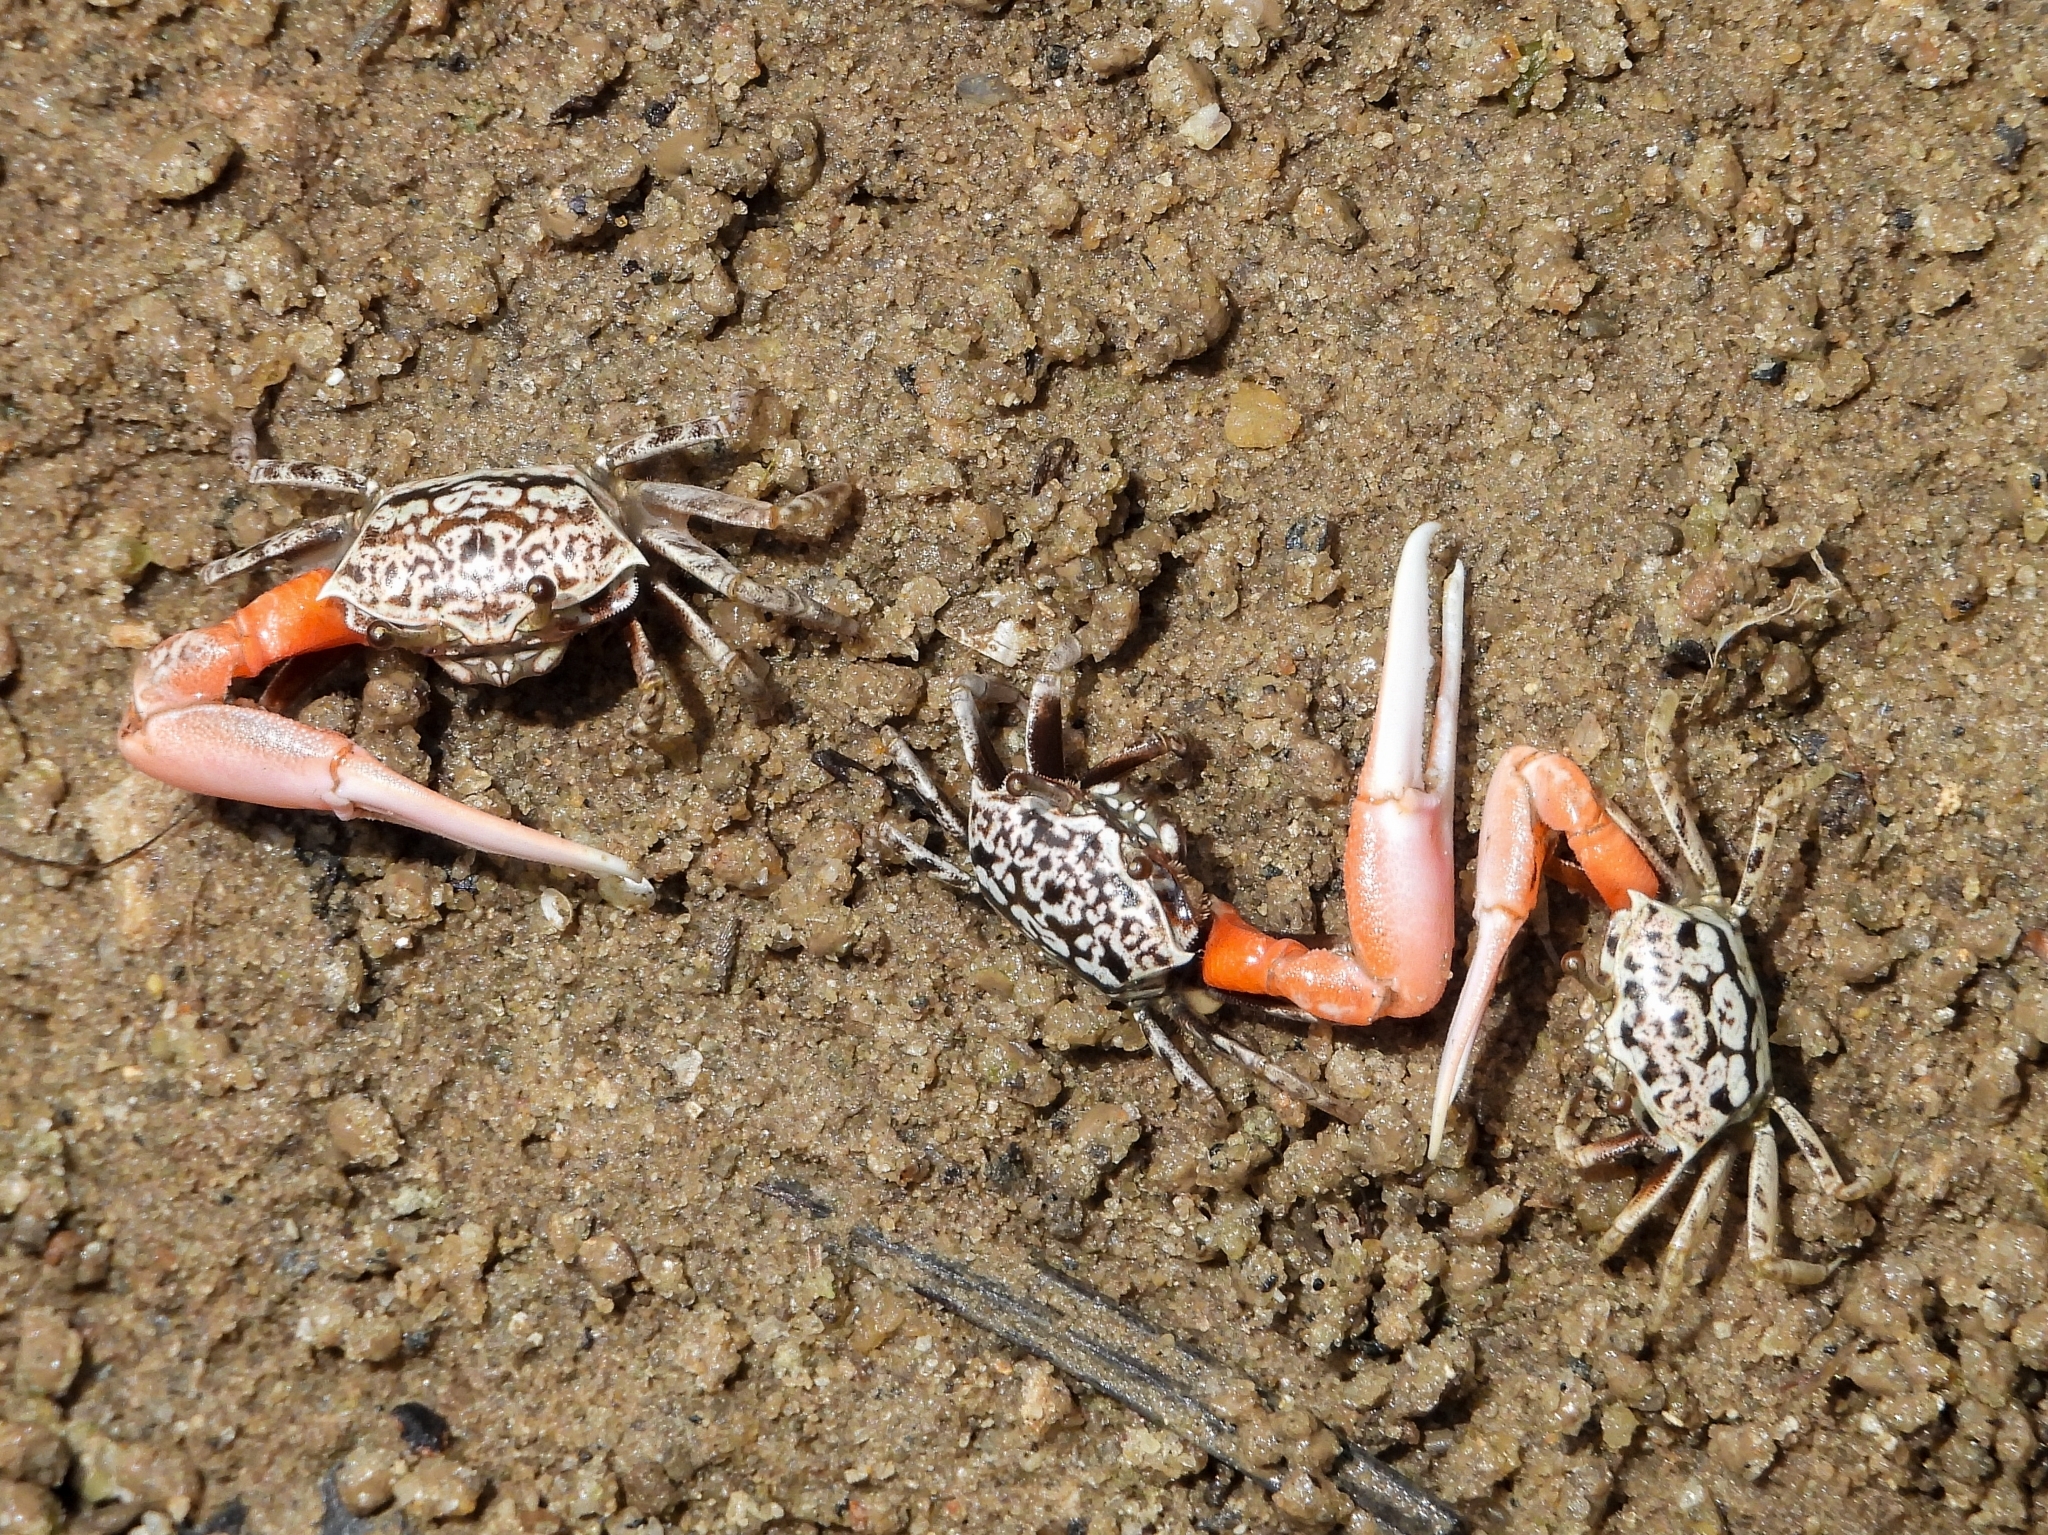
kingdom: Animalia
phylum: Arthropoda
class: Malacostraca
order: Decapoda
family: Ocypodidae
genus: Austruca
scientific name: Austruca occidentalis
